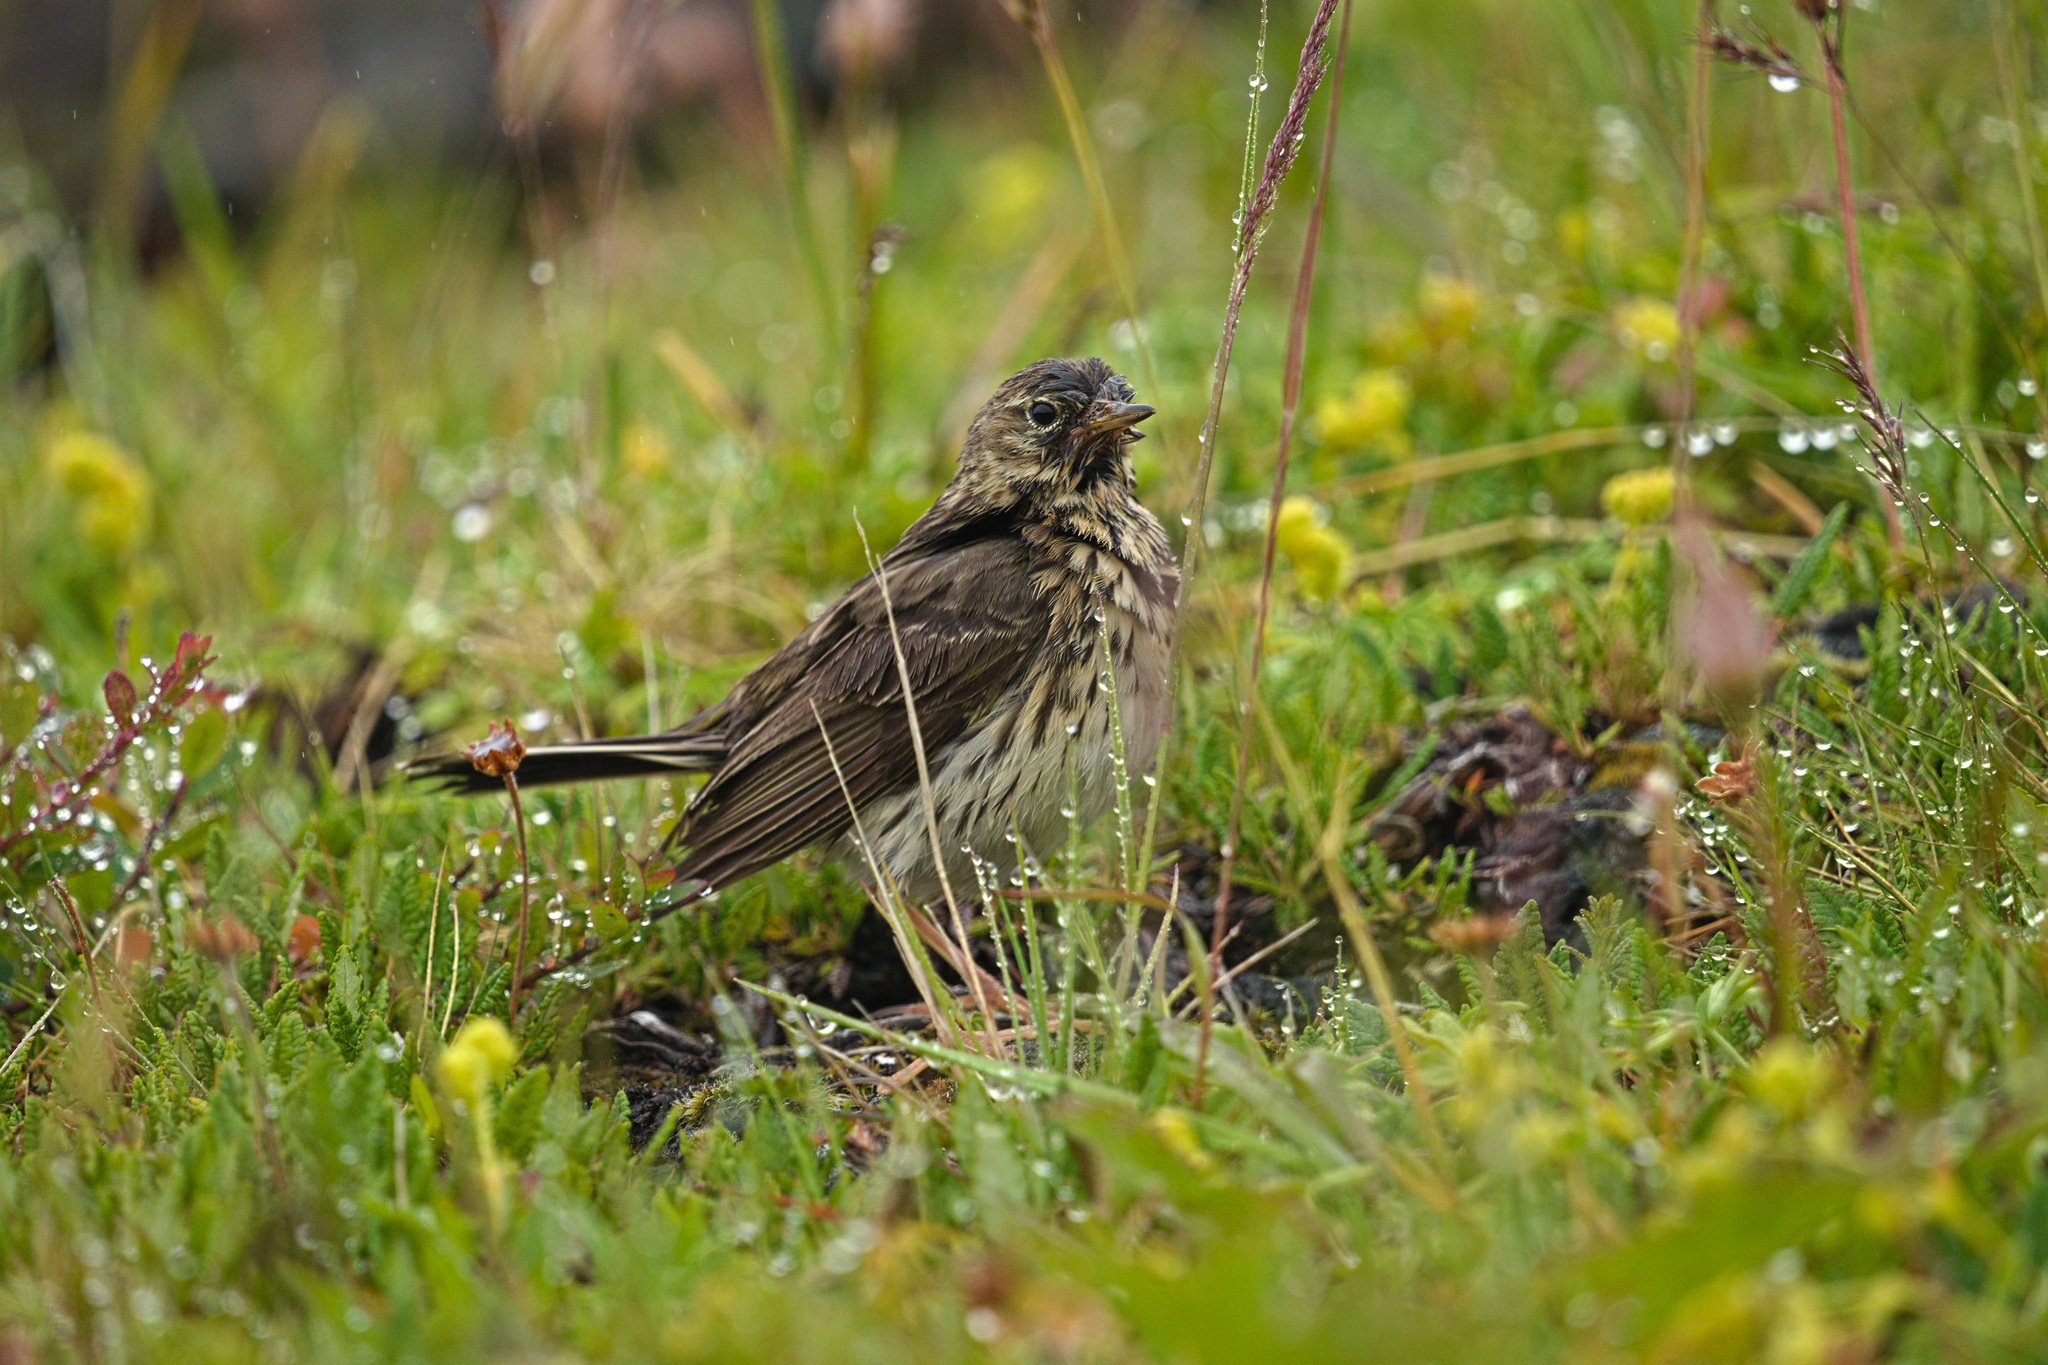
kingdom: Animalia
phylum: Chordata
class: Aves
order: Passeriformes
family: Motacillidae
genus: Anthus
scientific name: Anthus pratensis
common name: Meadow pipit
